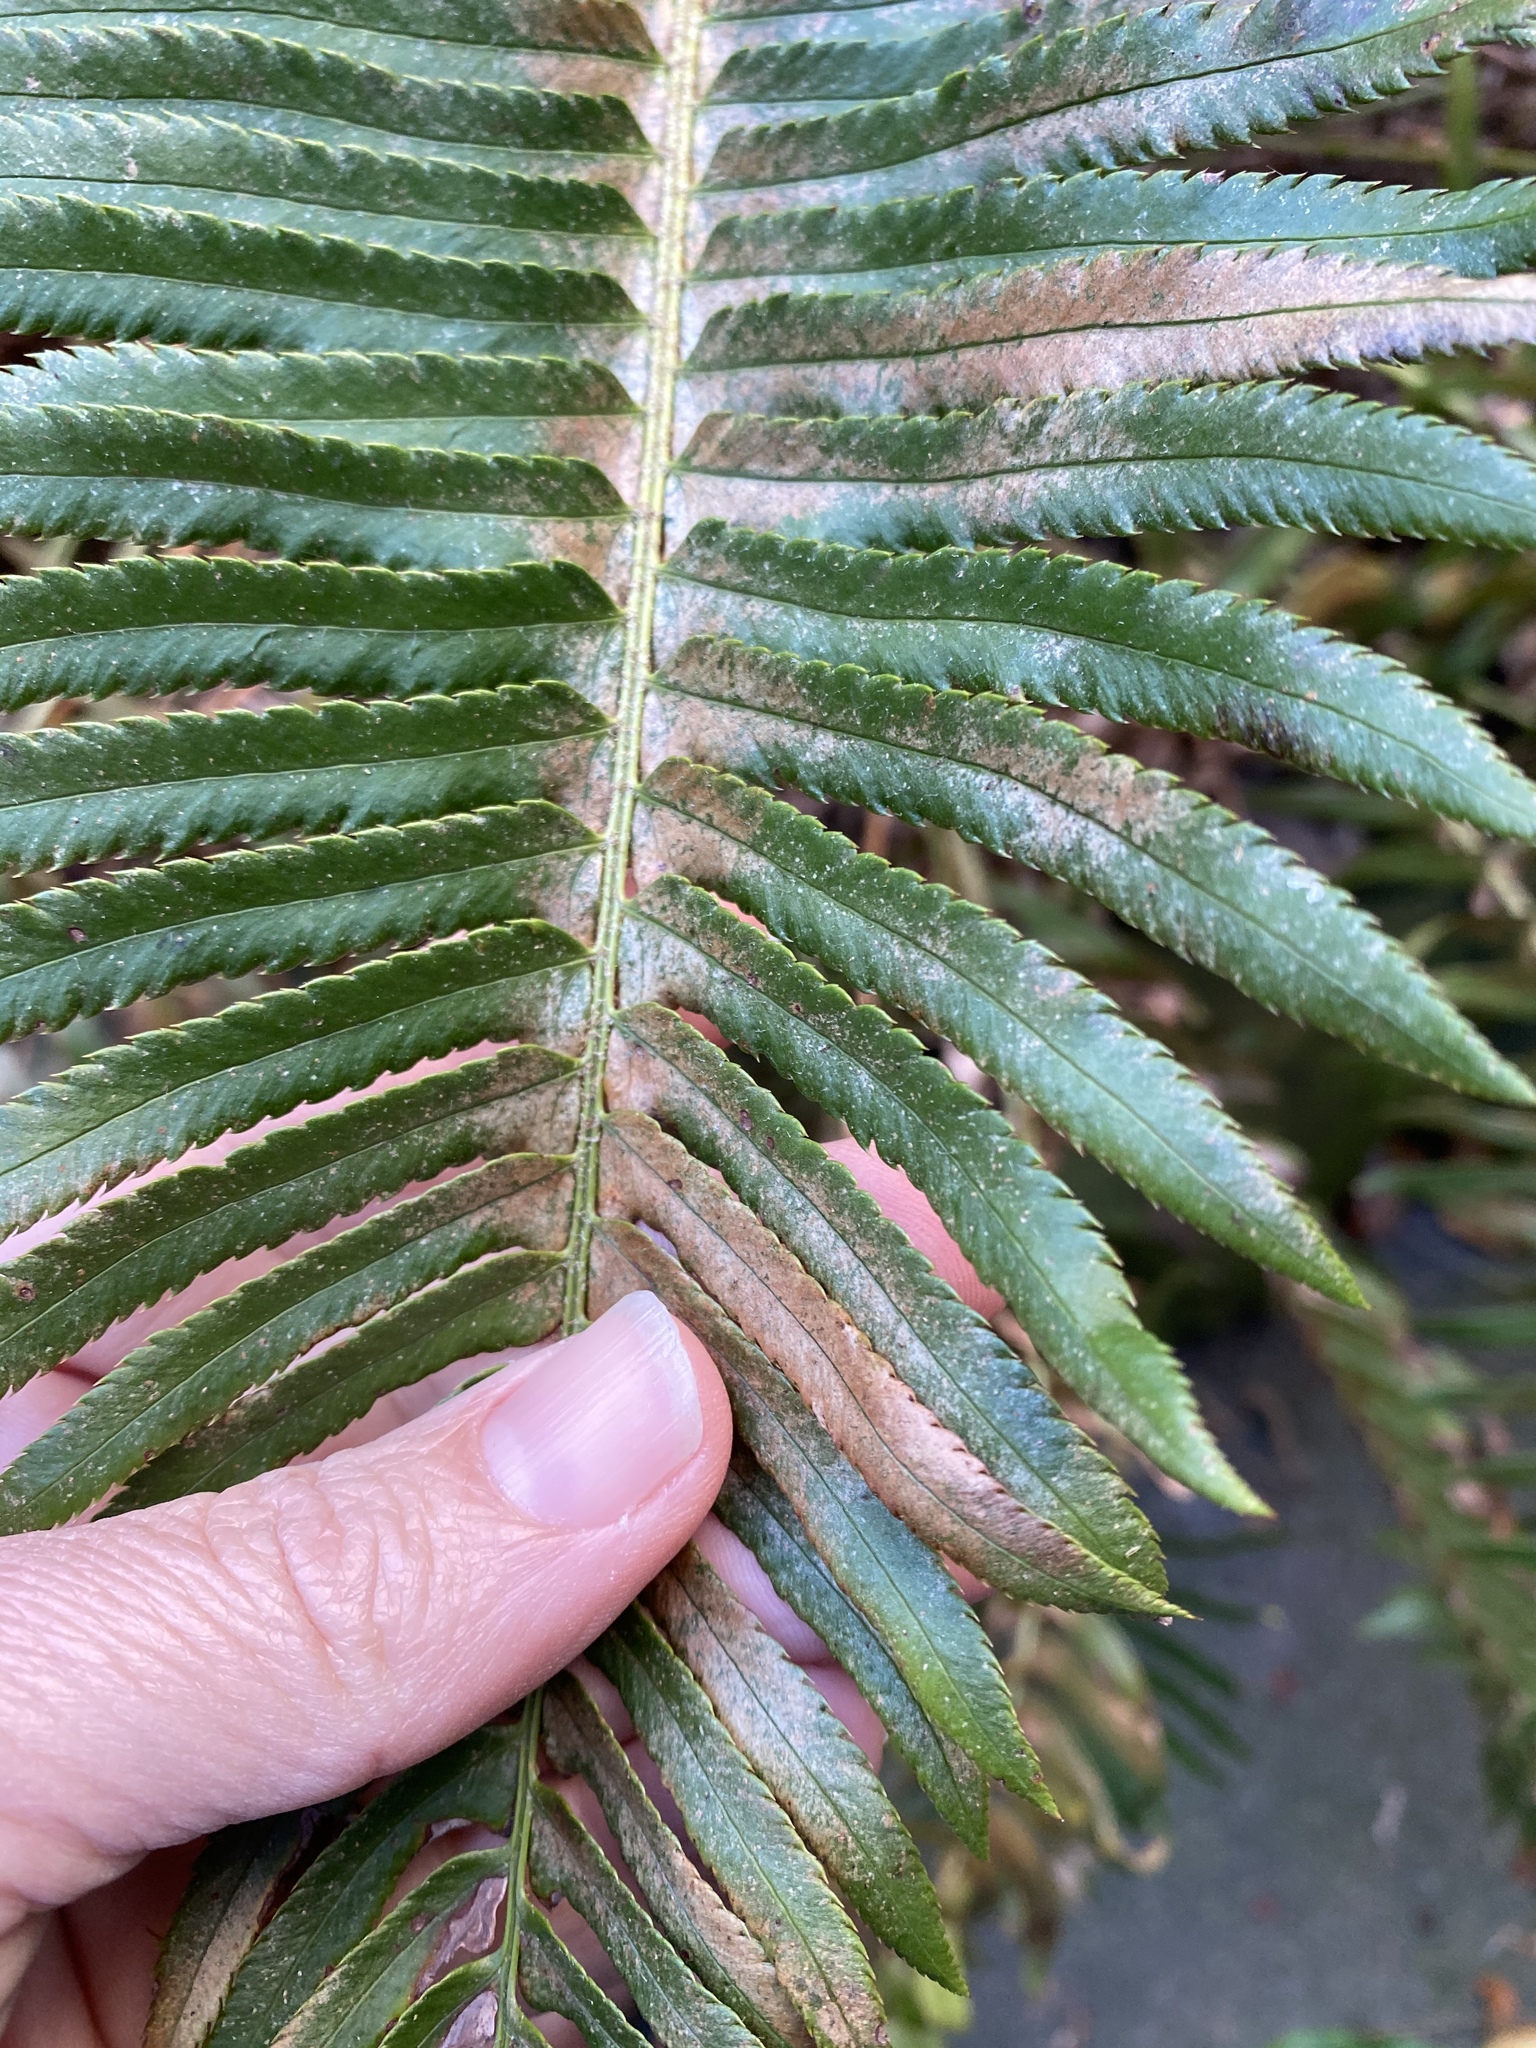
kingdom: Plantae
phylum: Tracheophyta
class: Polypodiopsida
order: Polypodiales
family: Dryopteridaceae
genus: Polystichum
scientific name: Polystichum munitum
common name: Western sword-fern
